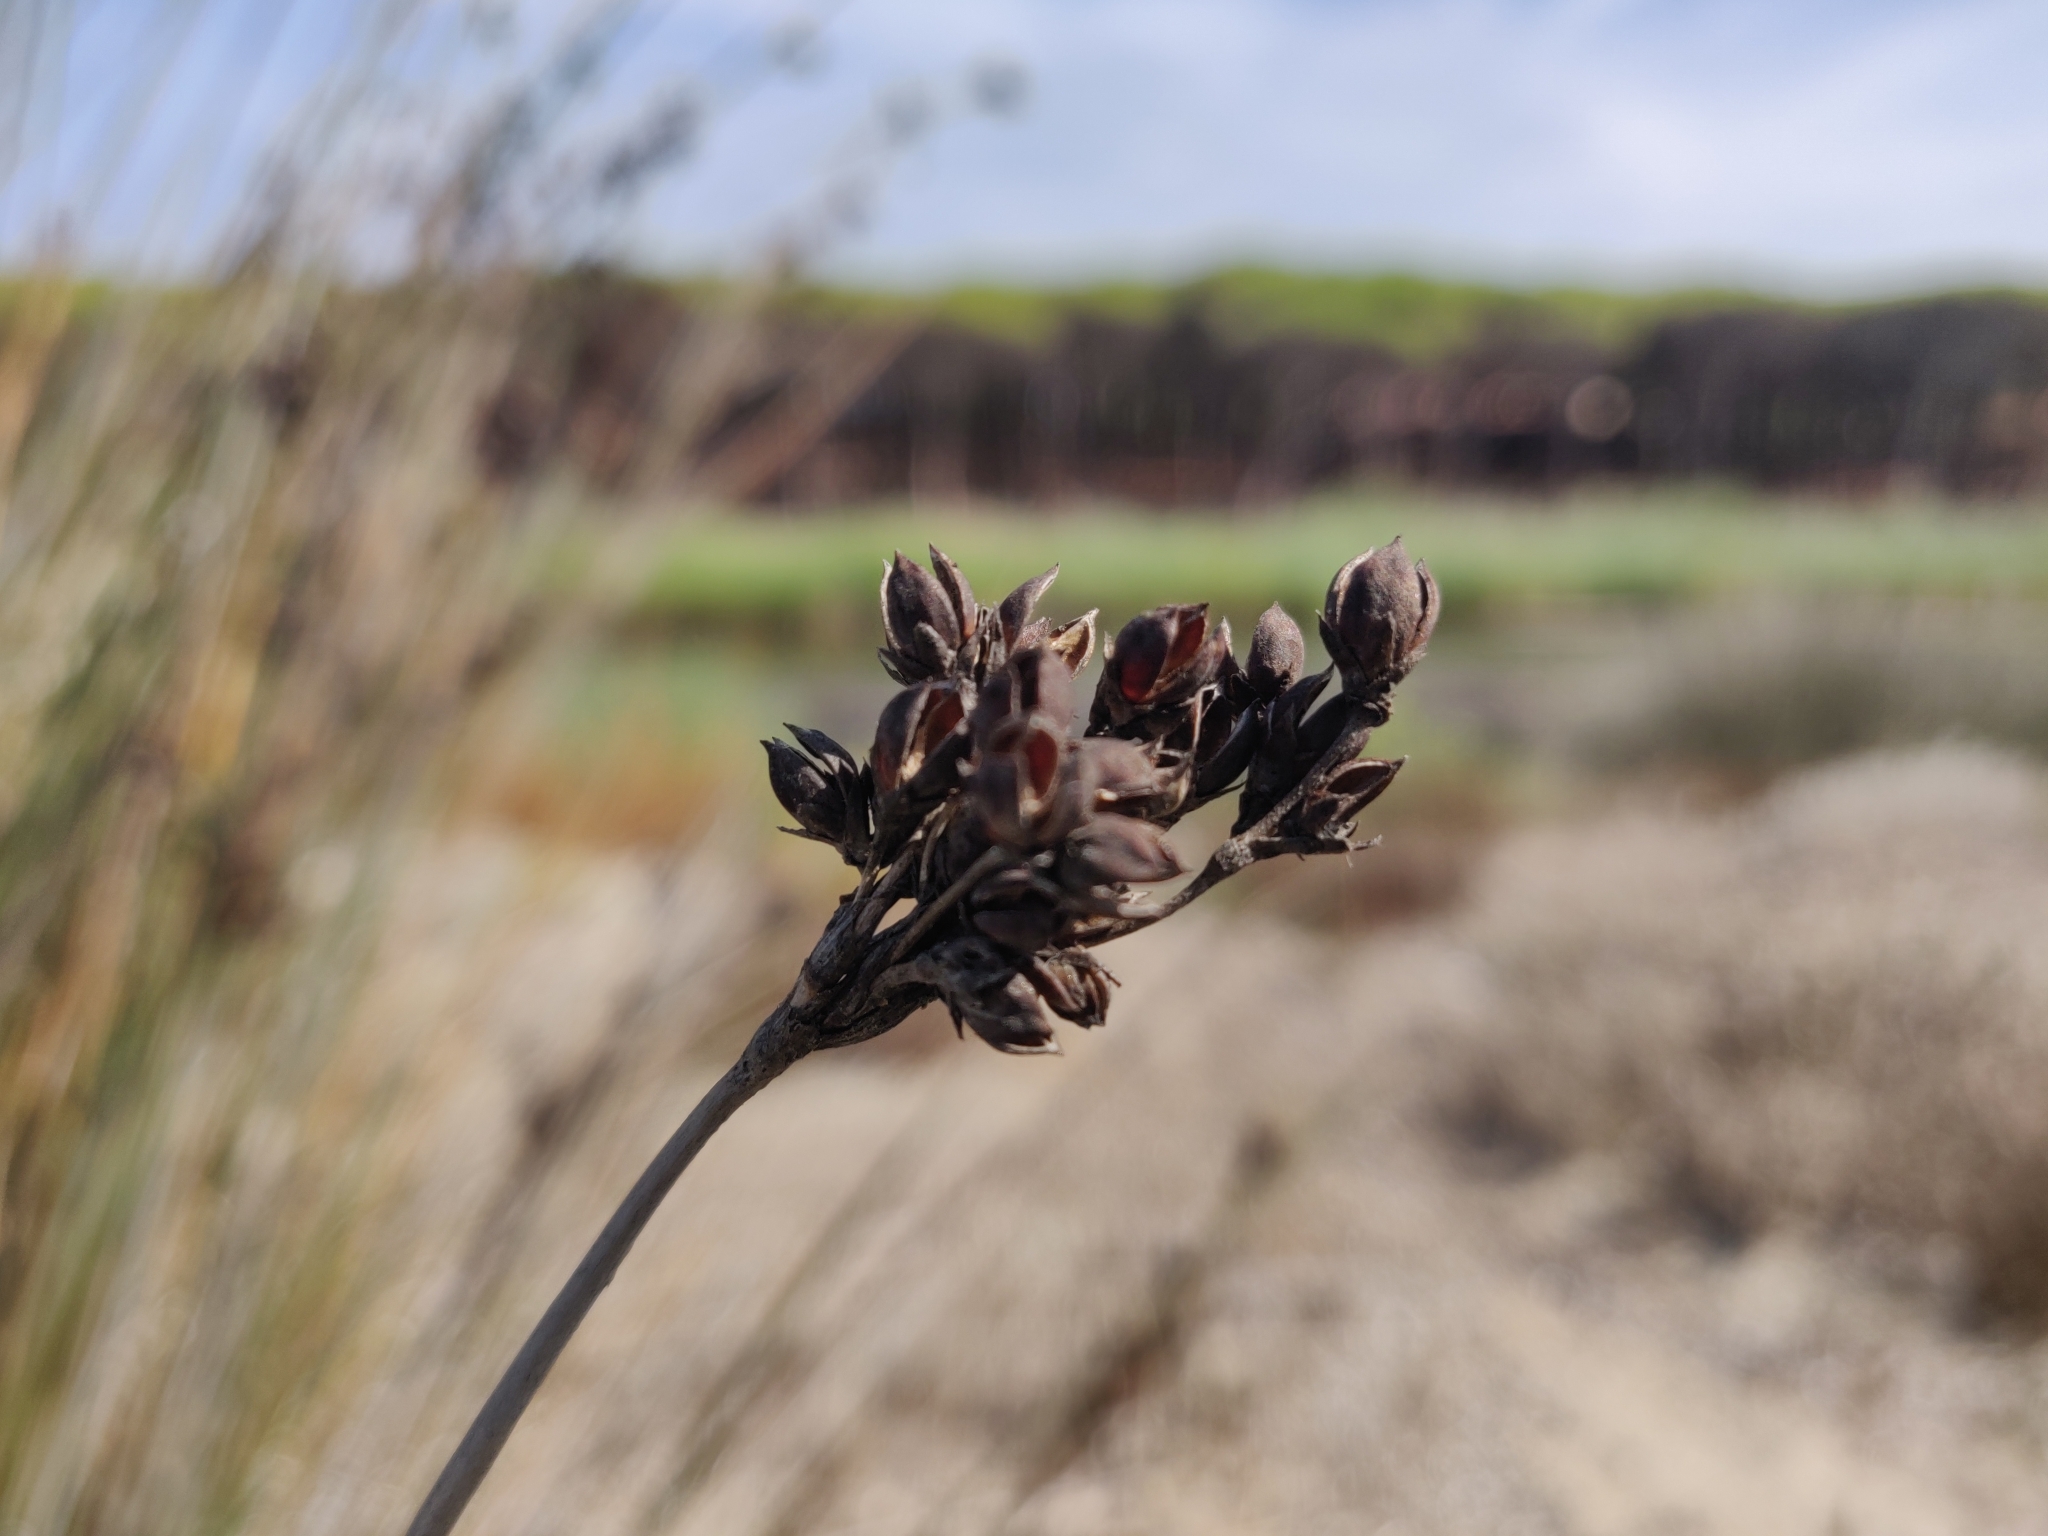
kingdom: Plantae
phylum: Tracheophyta
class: Liliopsida
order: Poales
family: Juncaceae
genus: Juncus
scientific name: Juncus acutus
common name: Sharp rush
